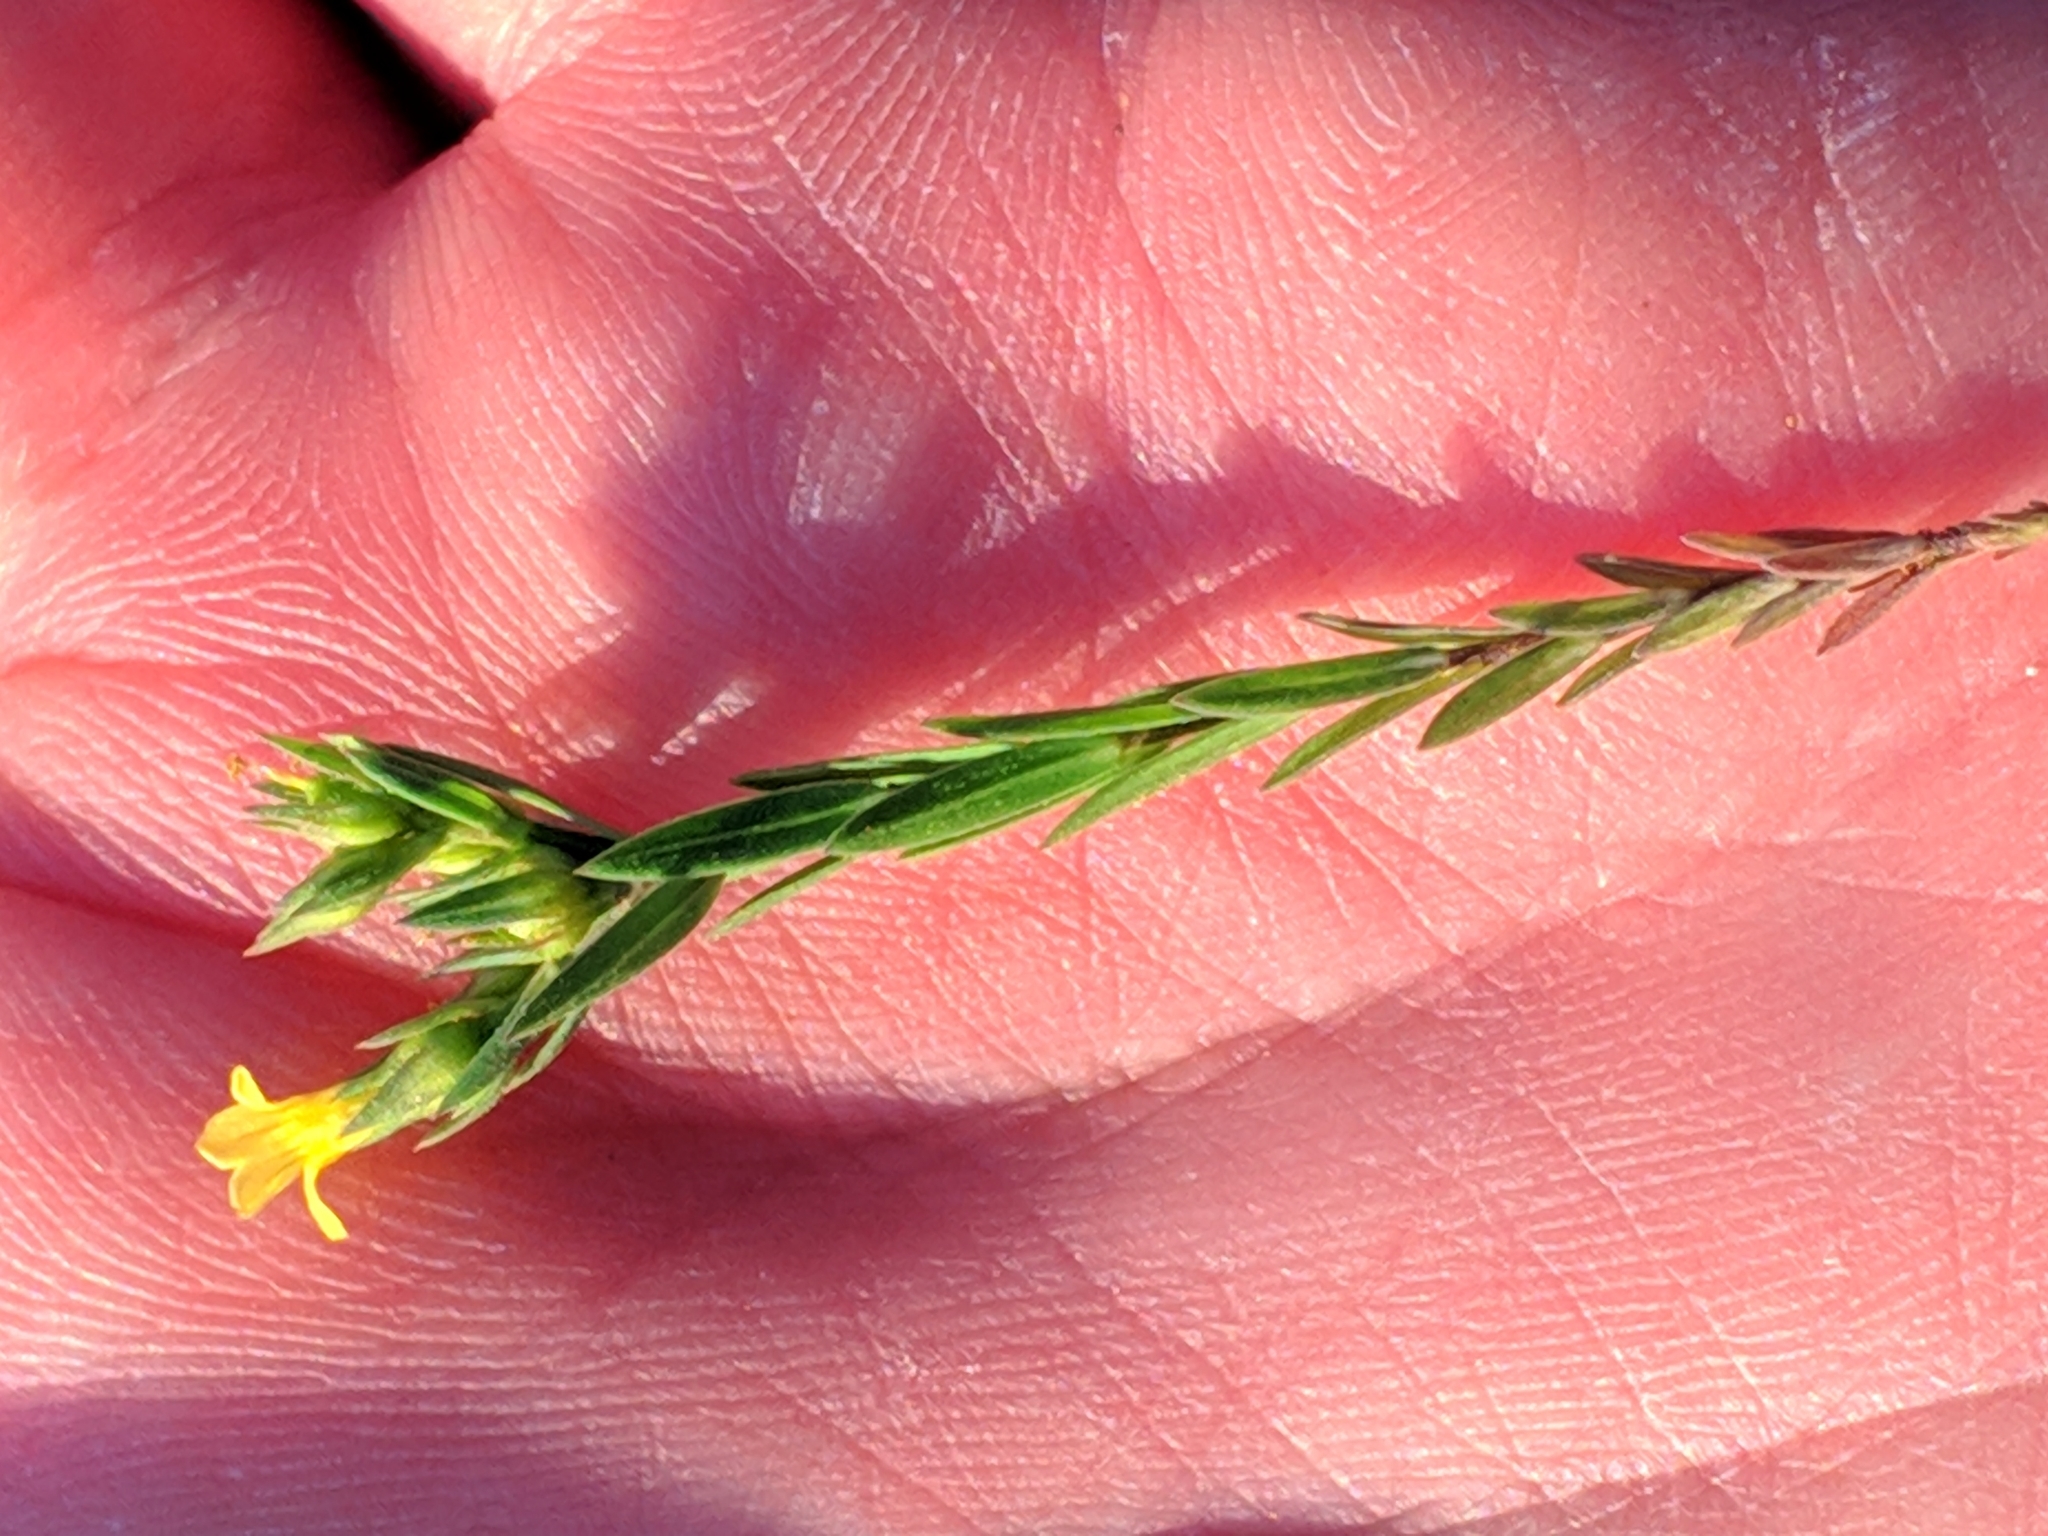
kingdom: Plantae
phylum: Tracheophyta
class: Magnoliopsida
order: Malpighiales
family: Linaceae
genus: Linum
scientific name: Linum strictum
